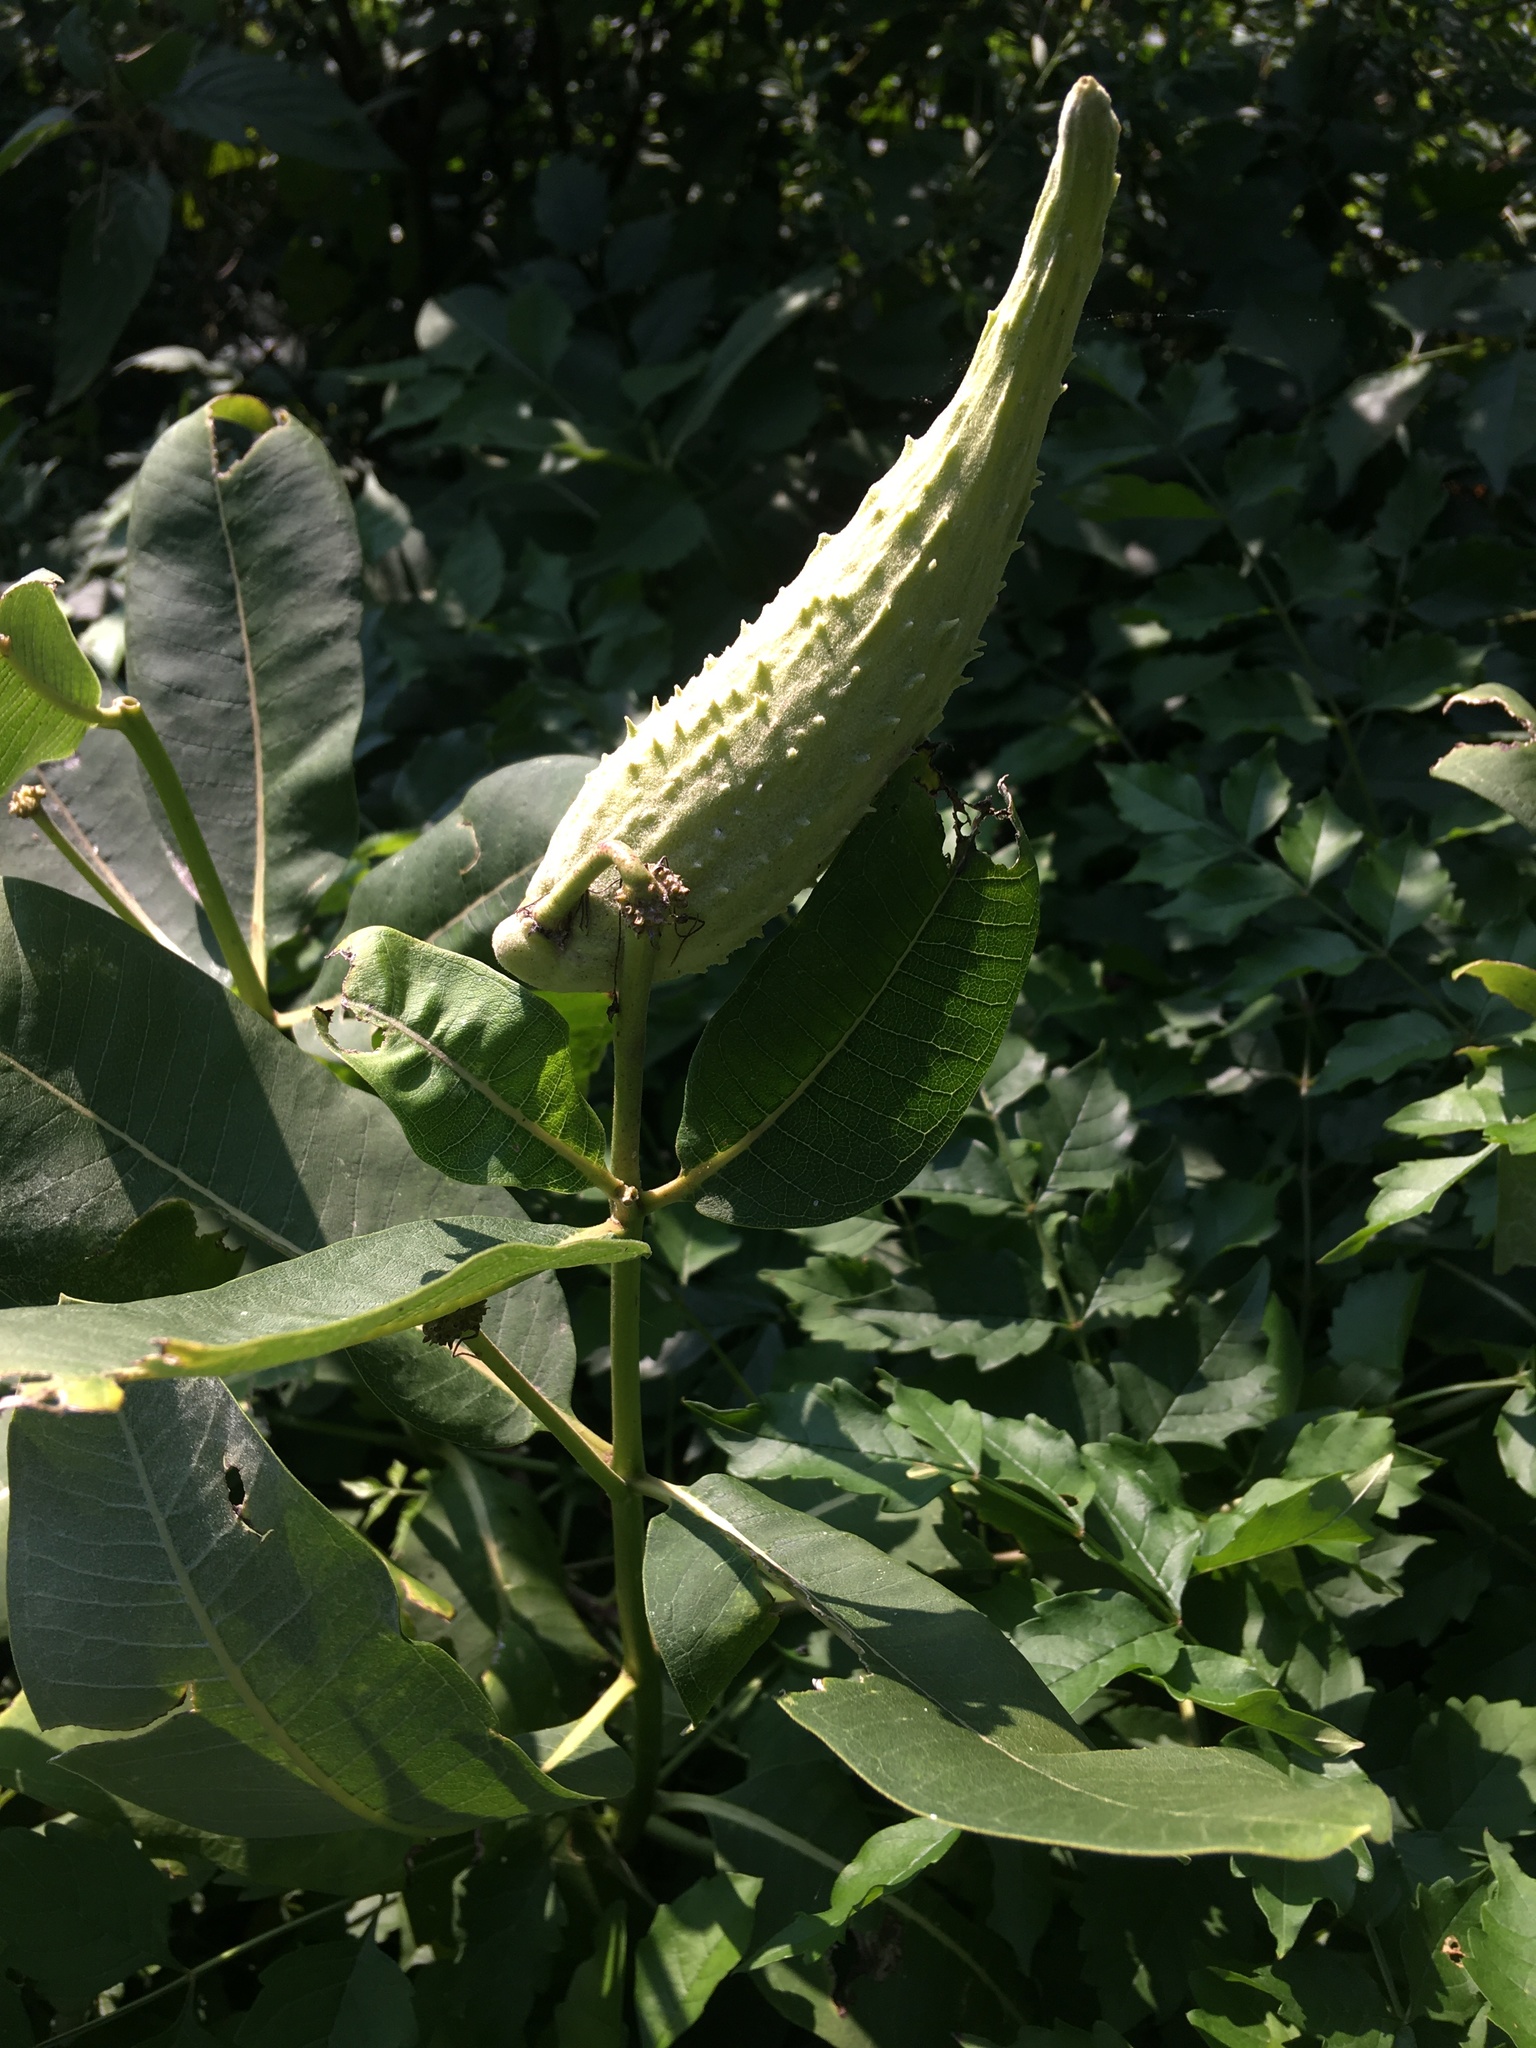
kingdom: Plantae
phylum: Tracheophyta
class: Magnoliopsida
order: Gentianales
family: Apocynaceae
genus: Asclepias
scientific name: Asclepias syriaca
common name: Common milkweed
